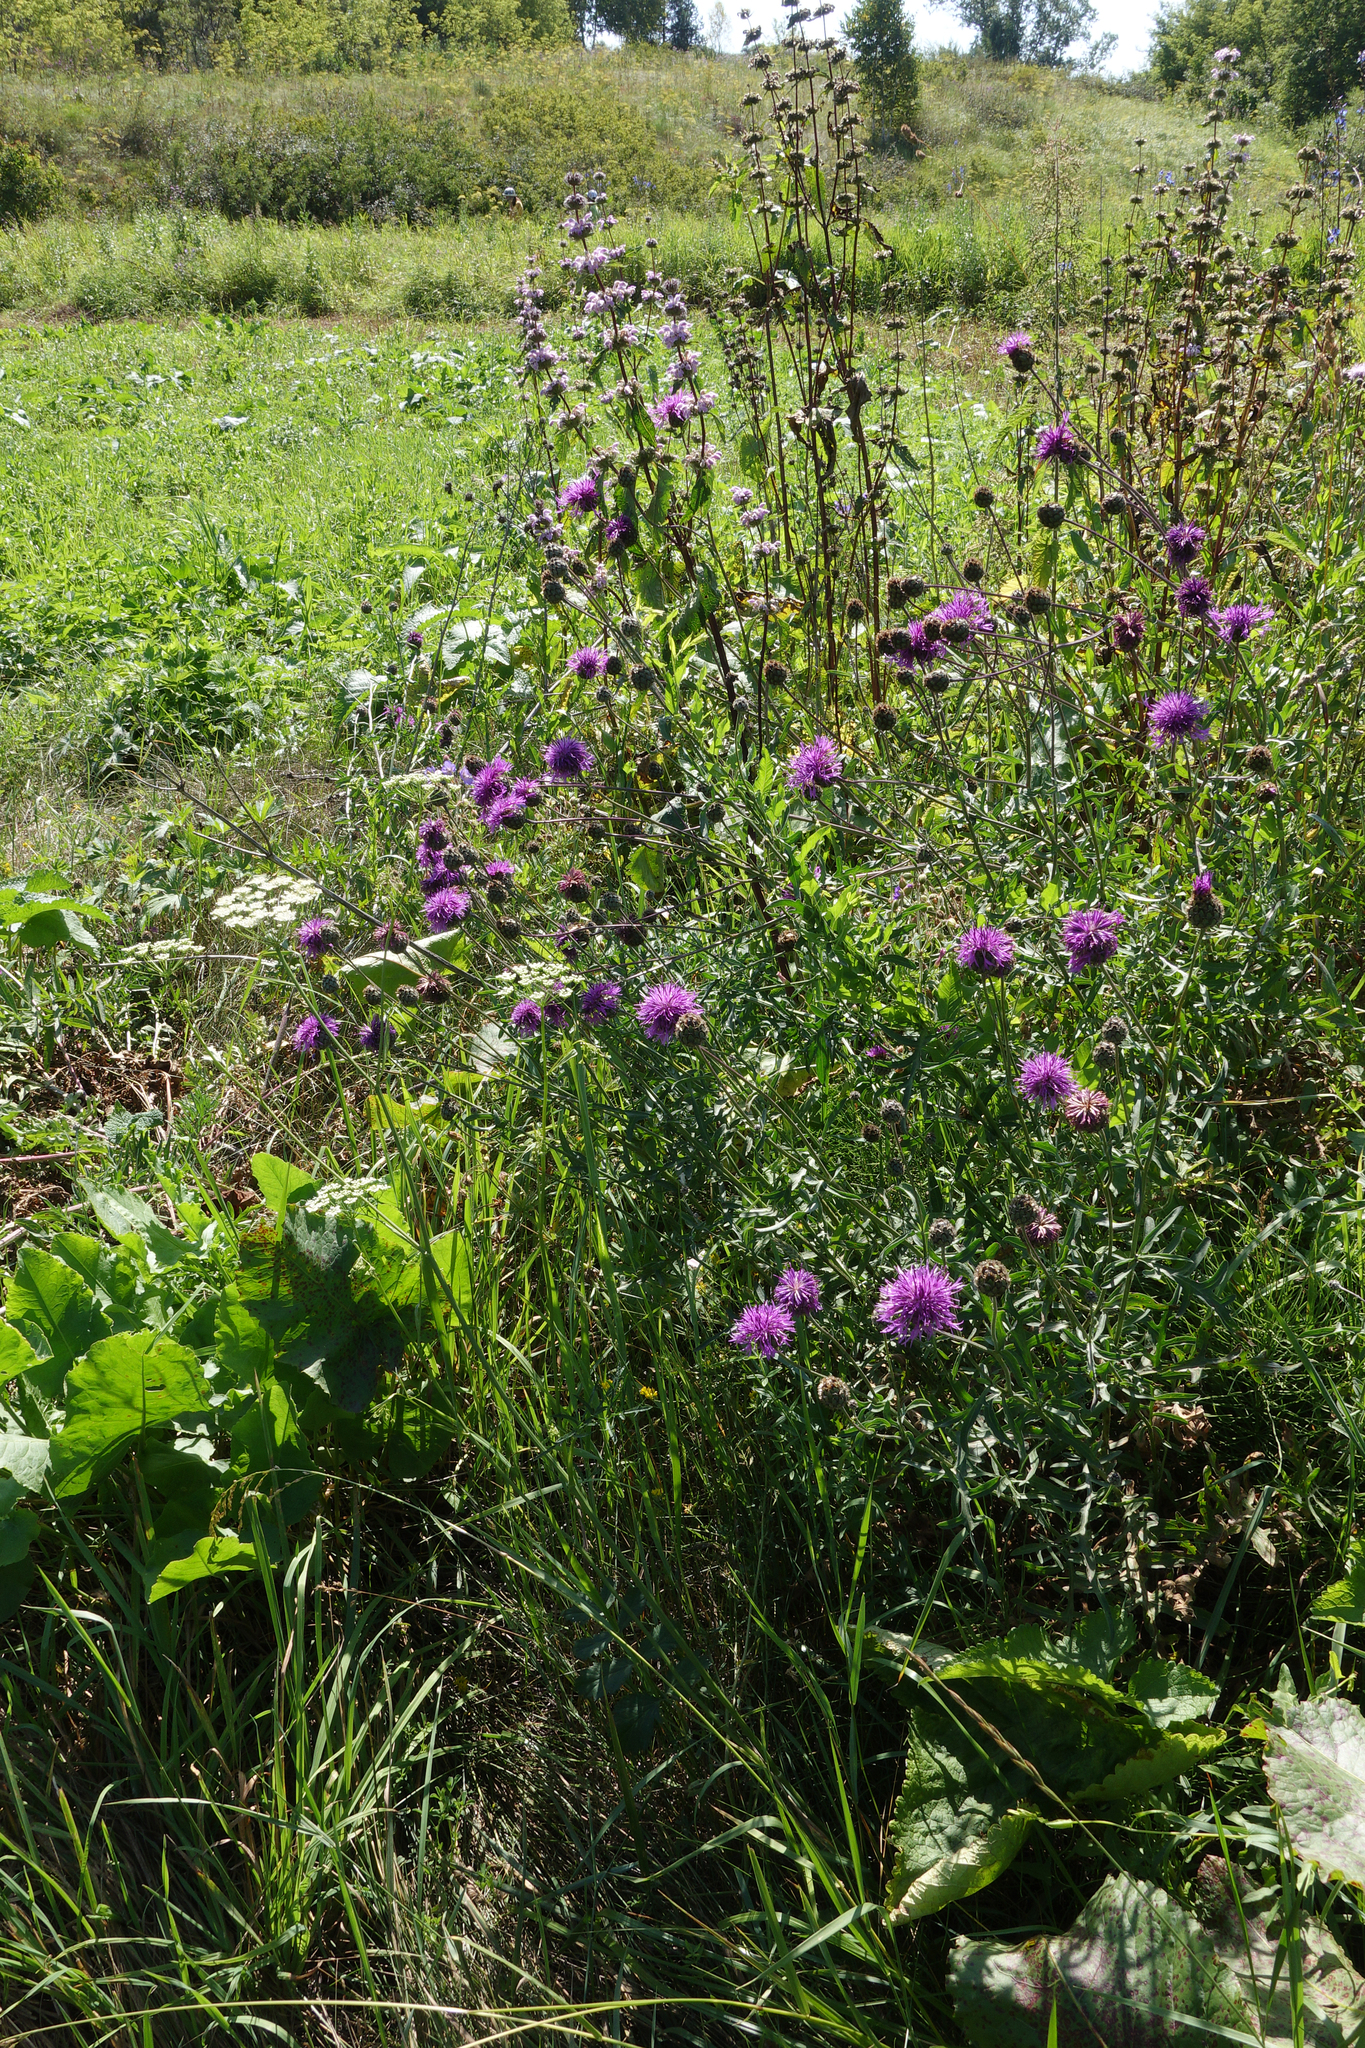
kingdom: Plantae
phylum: Tracheophyta
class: Magnoliopsida
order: Asterales
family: Asteraceae
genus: Centaurea
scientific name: Centaurea scabiosa
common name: Greater knapweed
